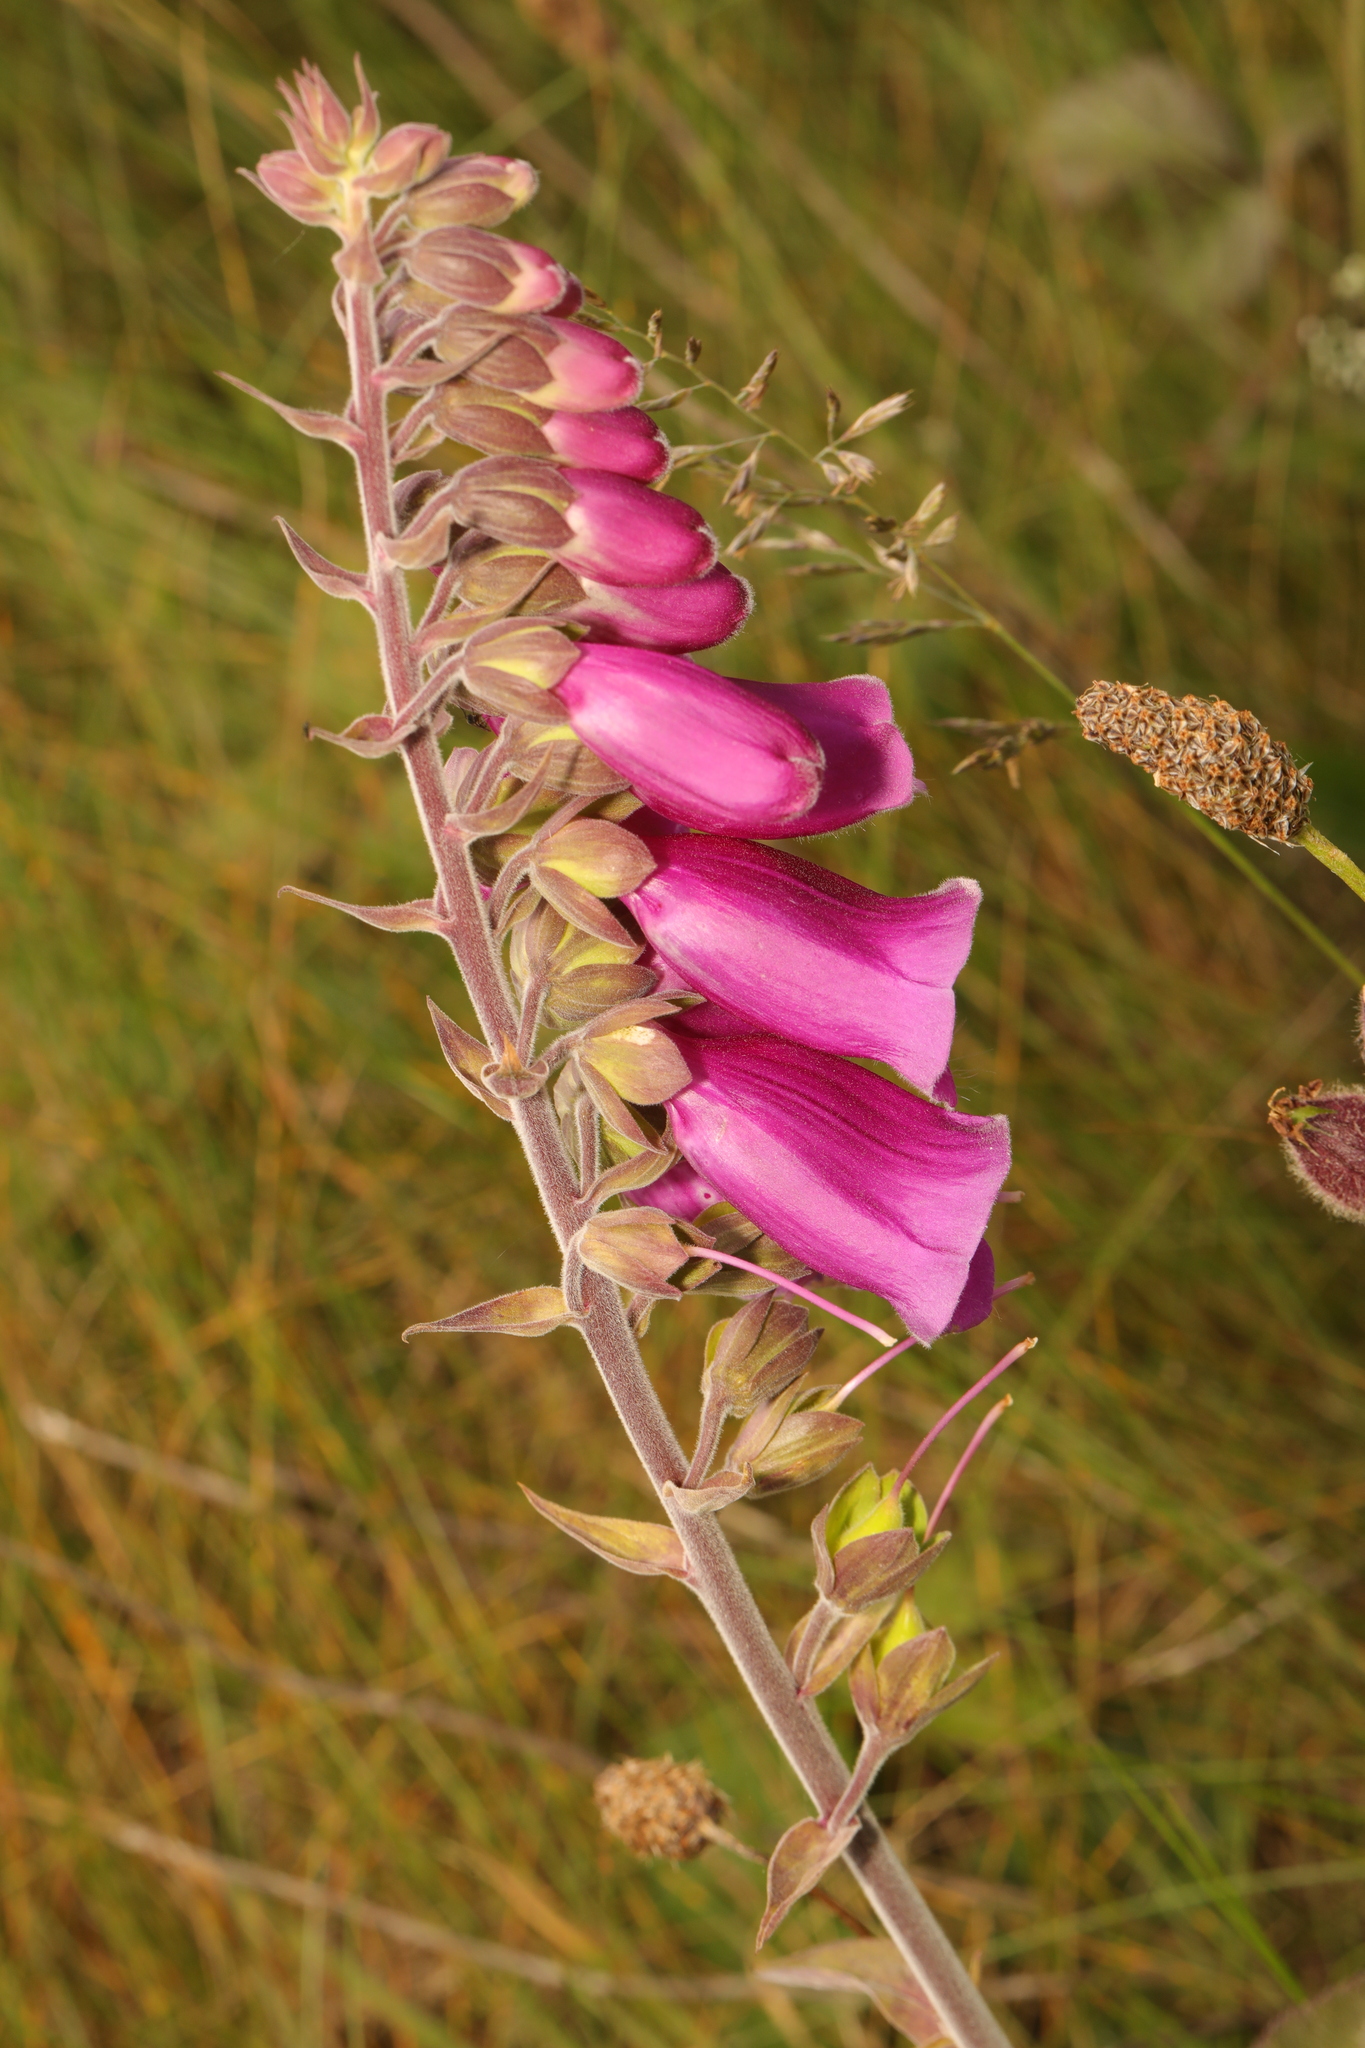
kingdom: Plantae
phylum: Tracheophyta
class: Magnoliopsida
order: Lamiales
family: Plantaginaceae
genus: Digitalis
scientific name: Digitalis purpurea
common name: Foxglove
